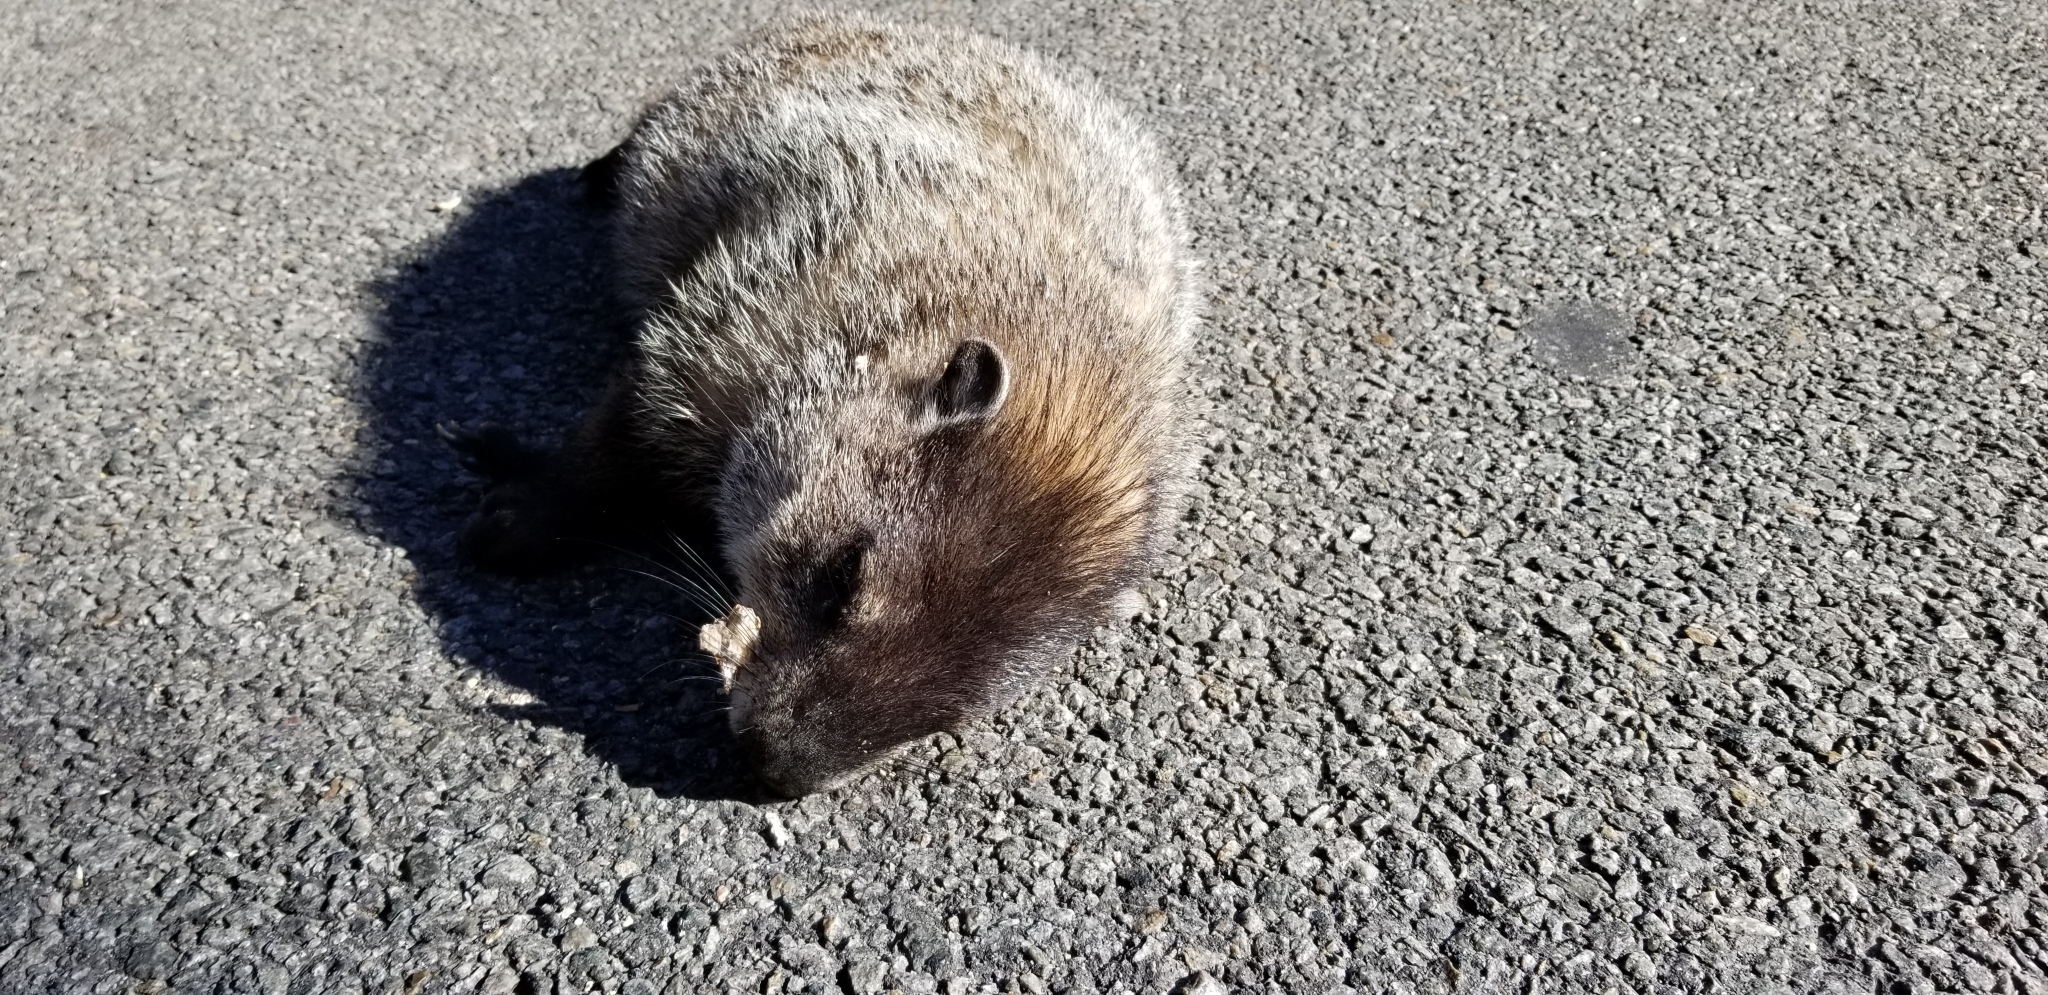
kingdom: Animalia
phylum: Chordata
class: Mammalia
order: Rodentia
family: Sciuridae
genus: Marmota
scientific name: Marmota monax
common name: Groundhog
